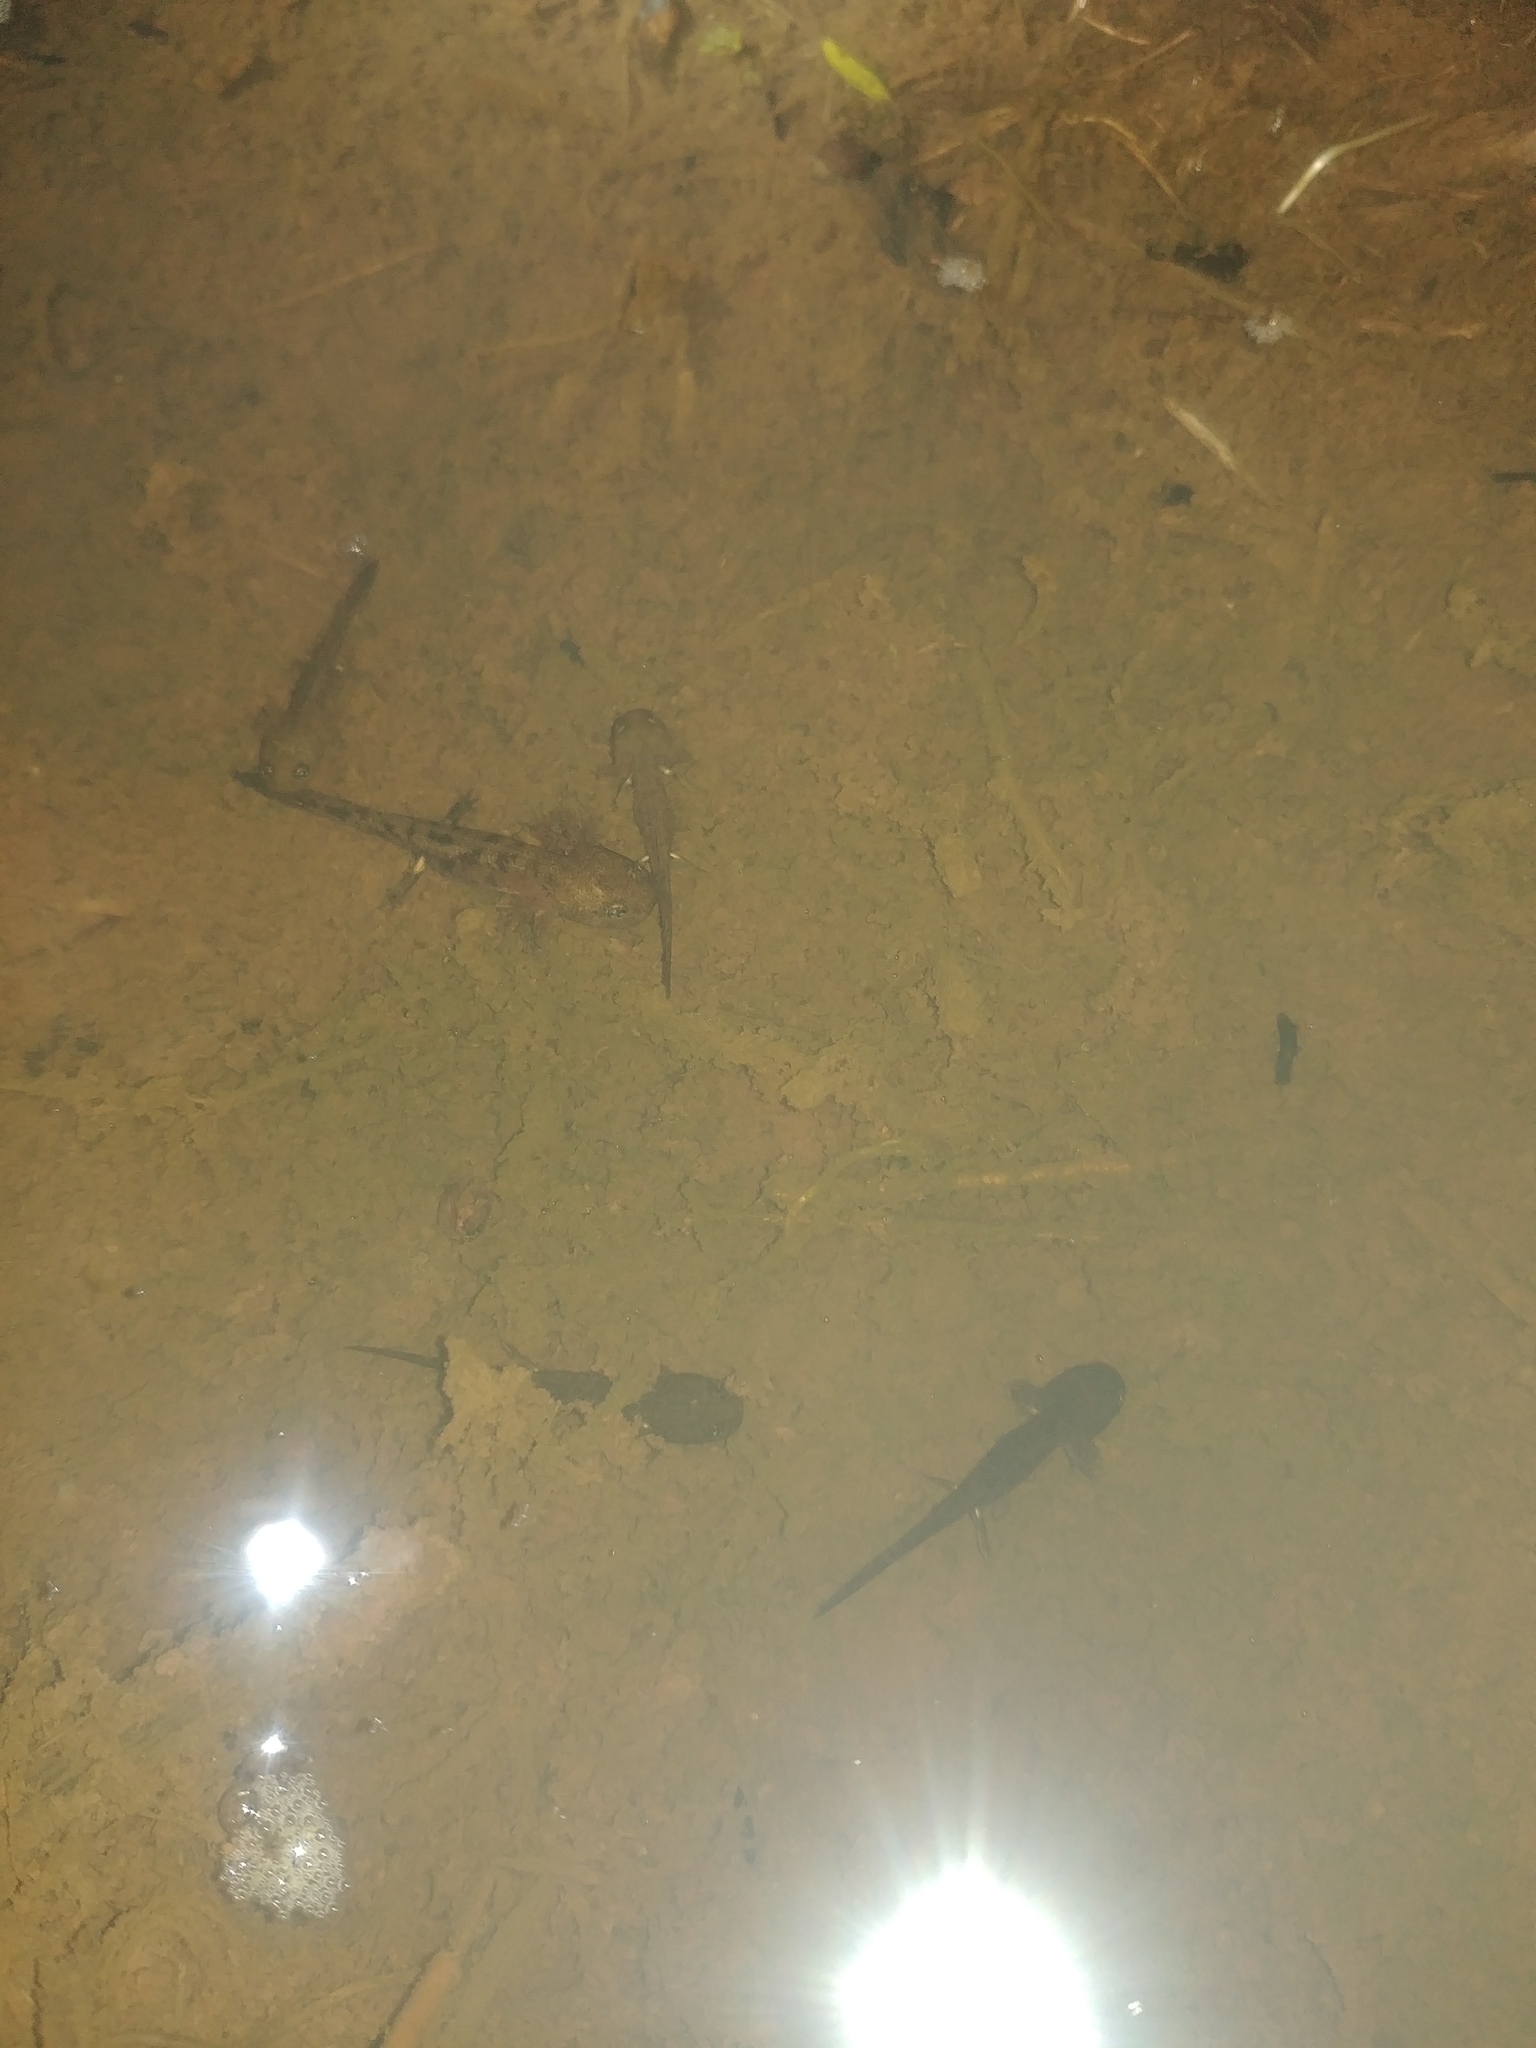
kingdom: Animalia
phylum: Chordata
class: Amphibia
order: Caudata
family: Salamandridae
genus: Salamandra
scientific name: Salamandra salamandra
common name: Fire salamander
